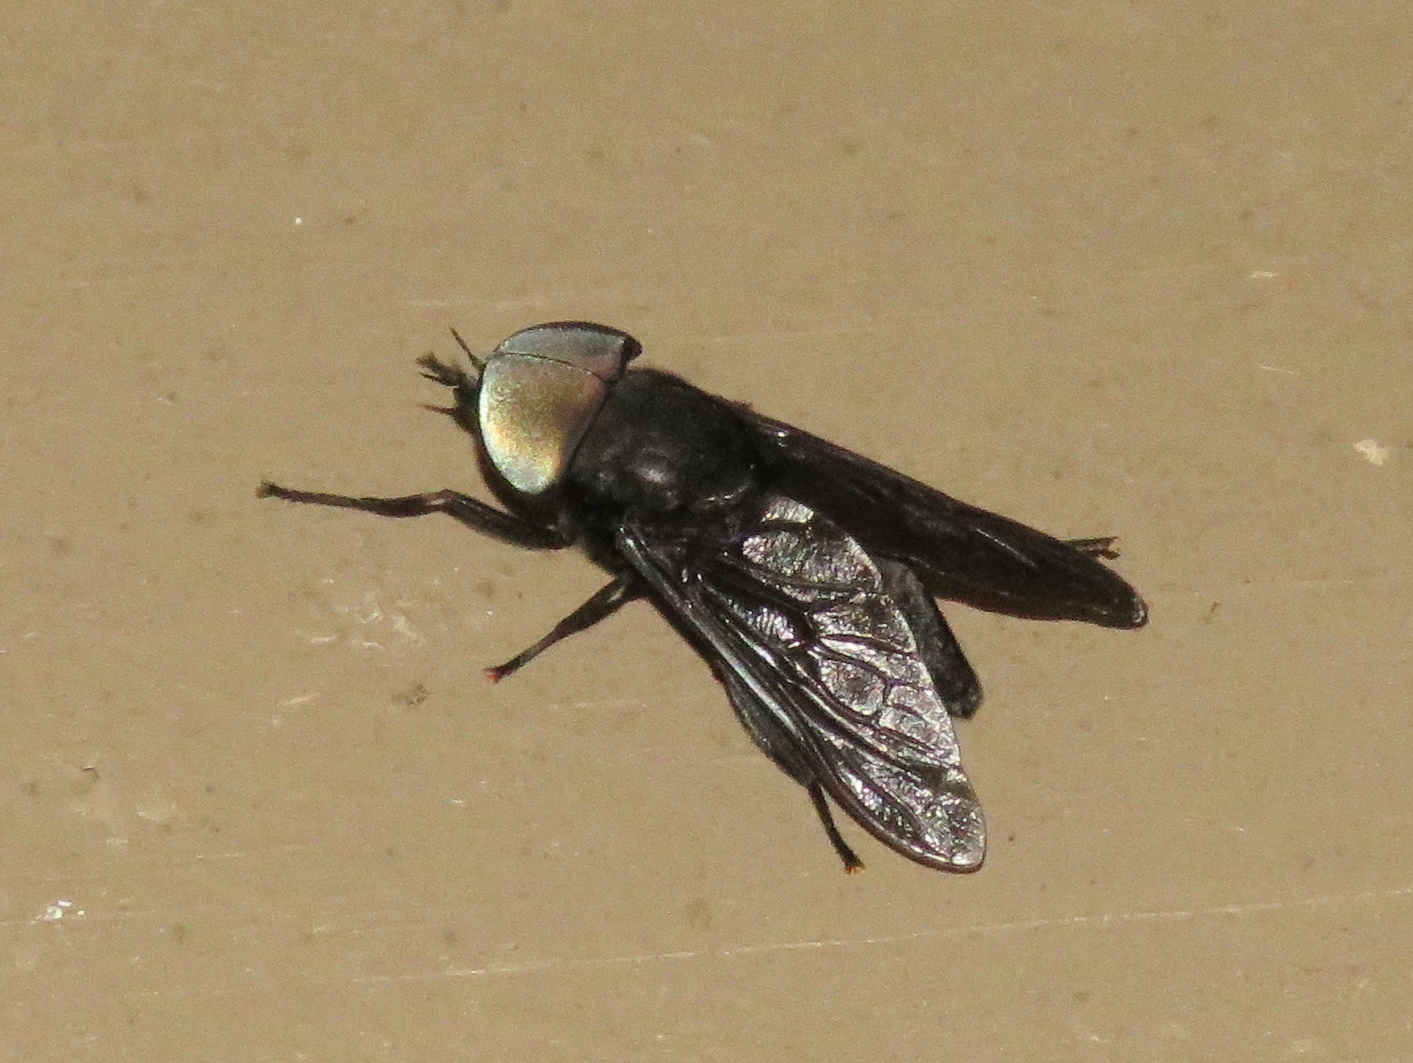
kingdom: Animalia
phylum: Arthropoda
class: Insecta
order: Diptera
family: Tabanidae
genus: Tabanus
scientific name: Tabanus atratus
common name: Black horse fly
